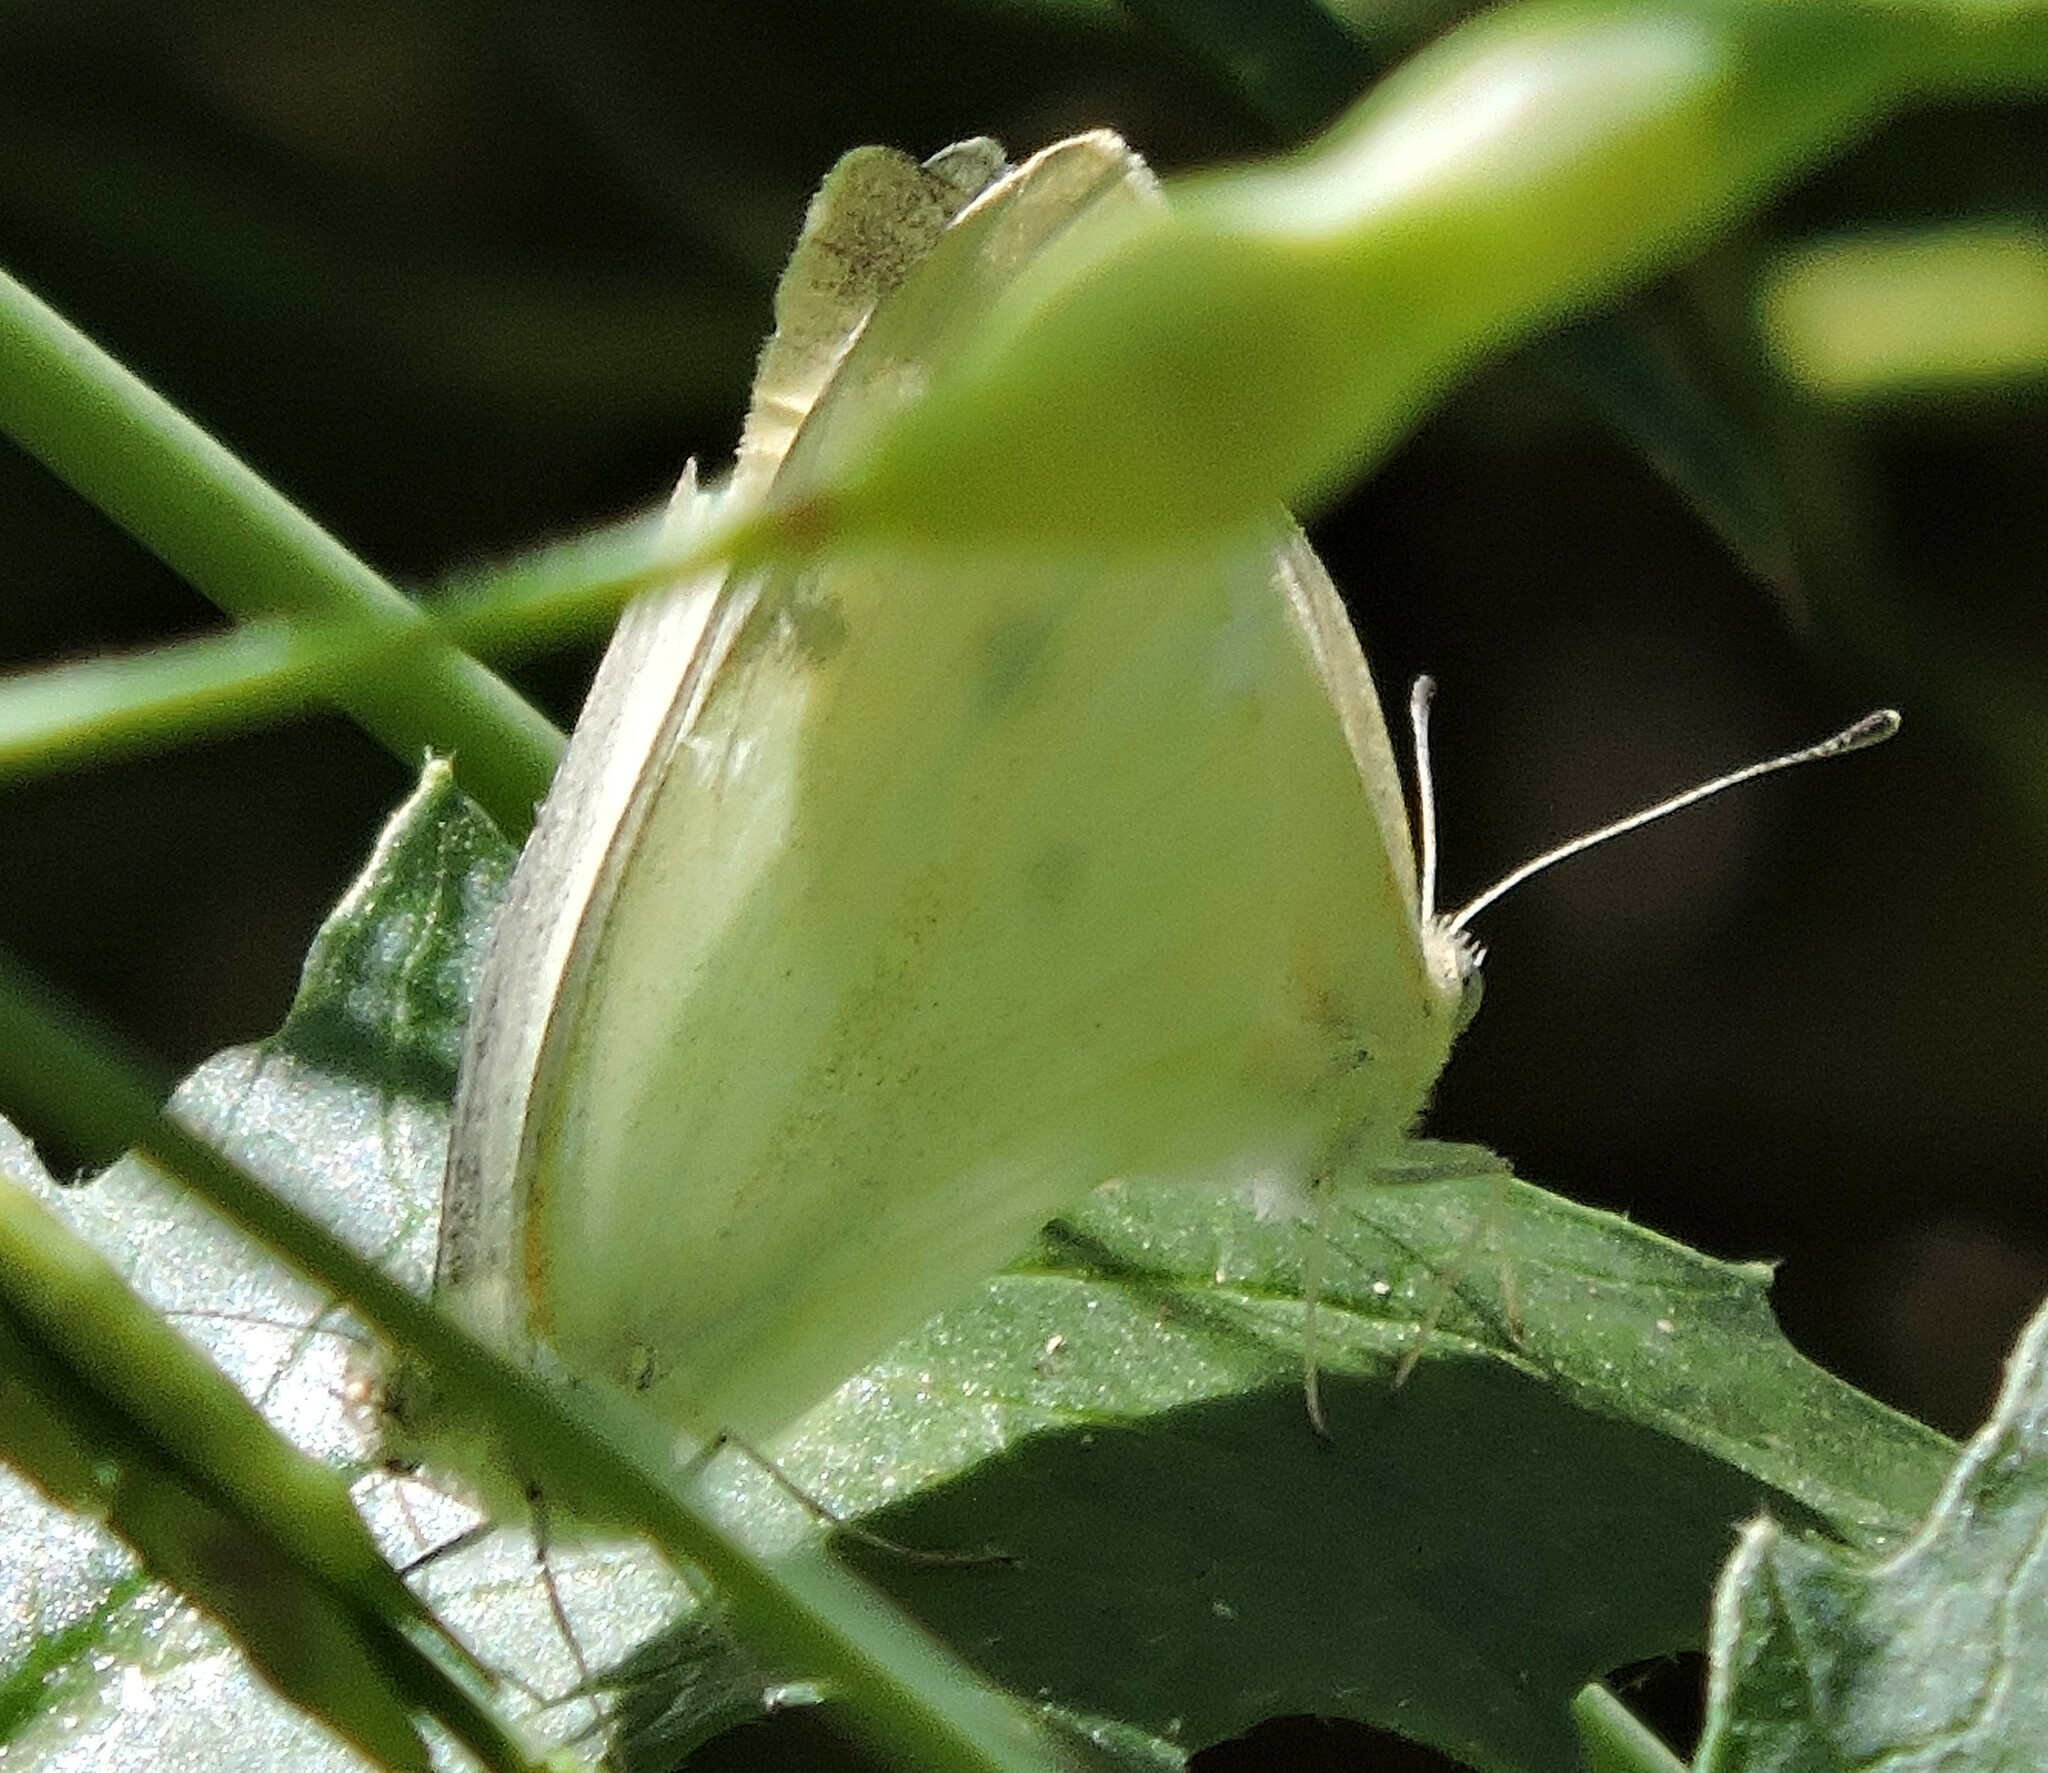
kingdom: Animalia
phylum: Arthropoda
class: Insecta
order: Lepidoptera
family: Pieridae
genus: Pieris
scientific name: Pieris rapae
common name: Small white
